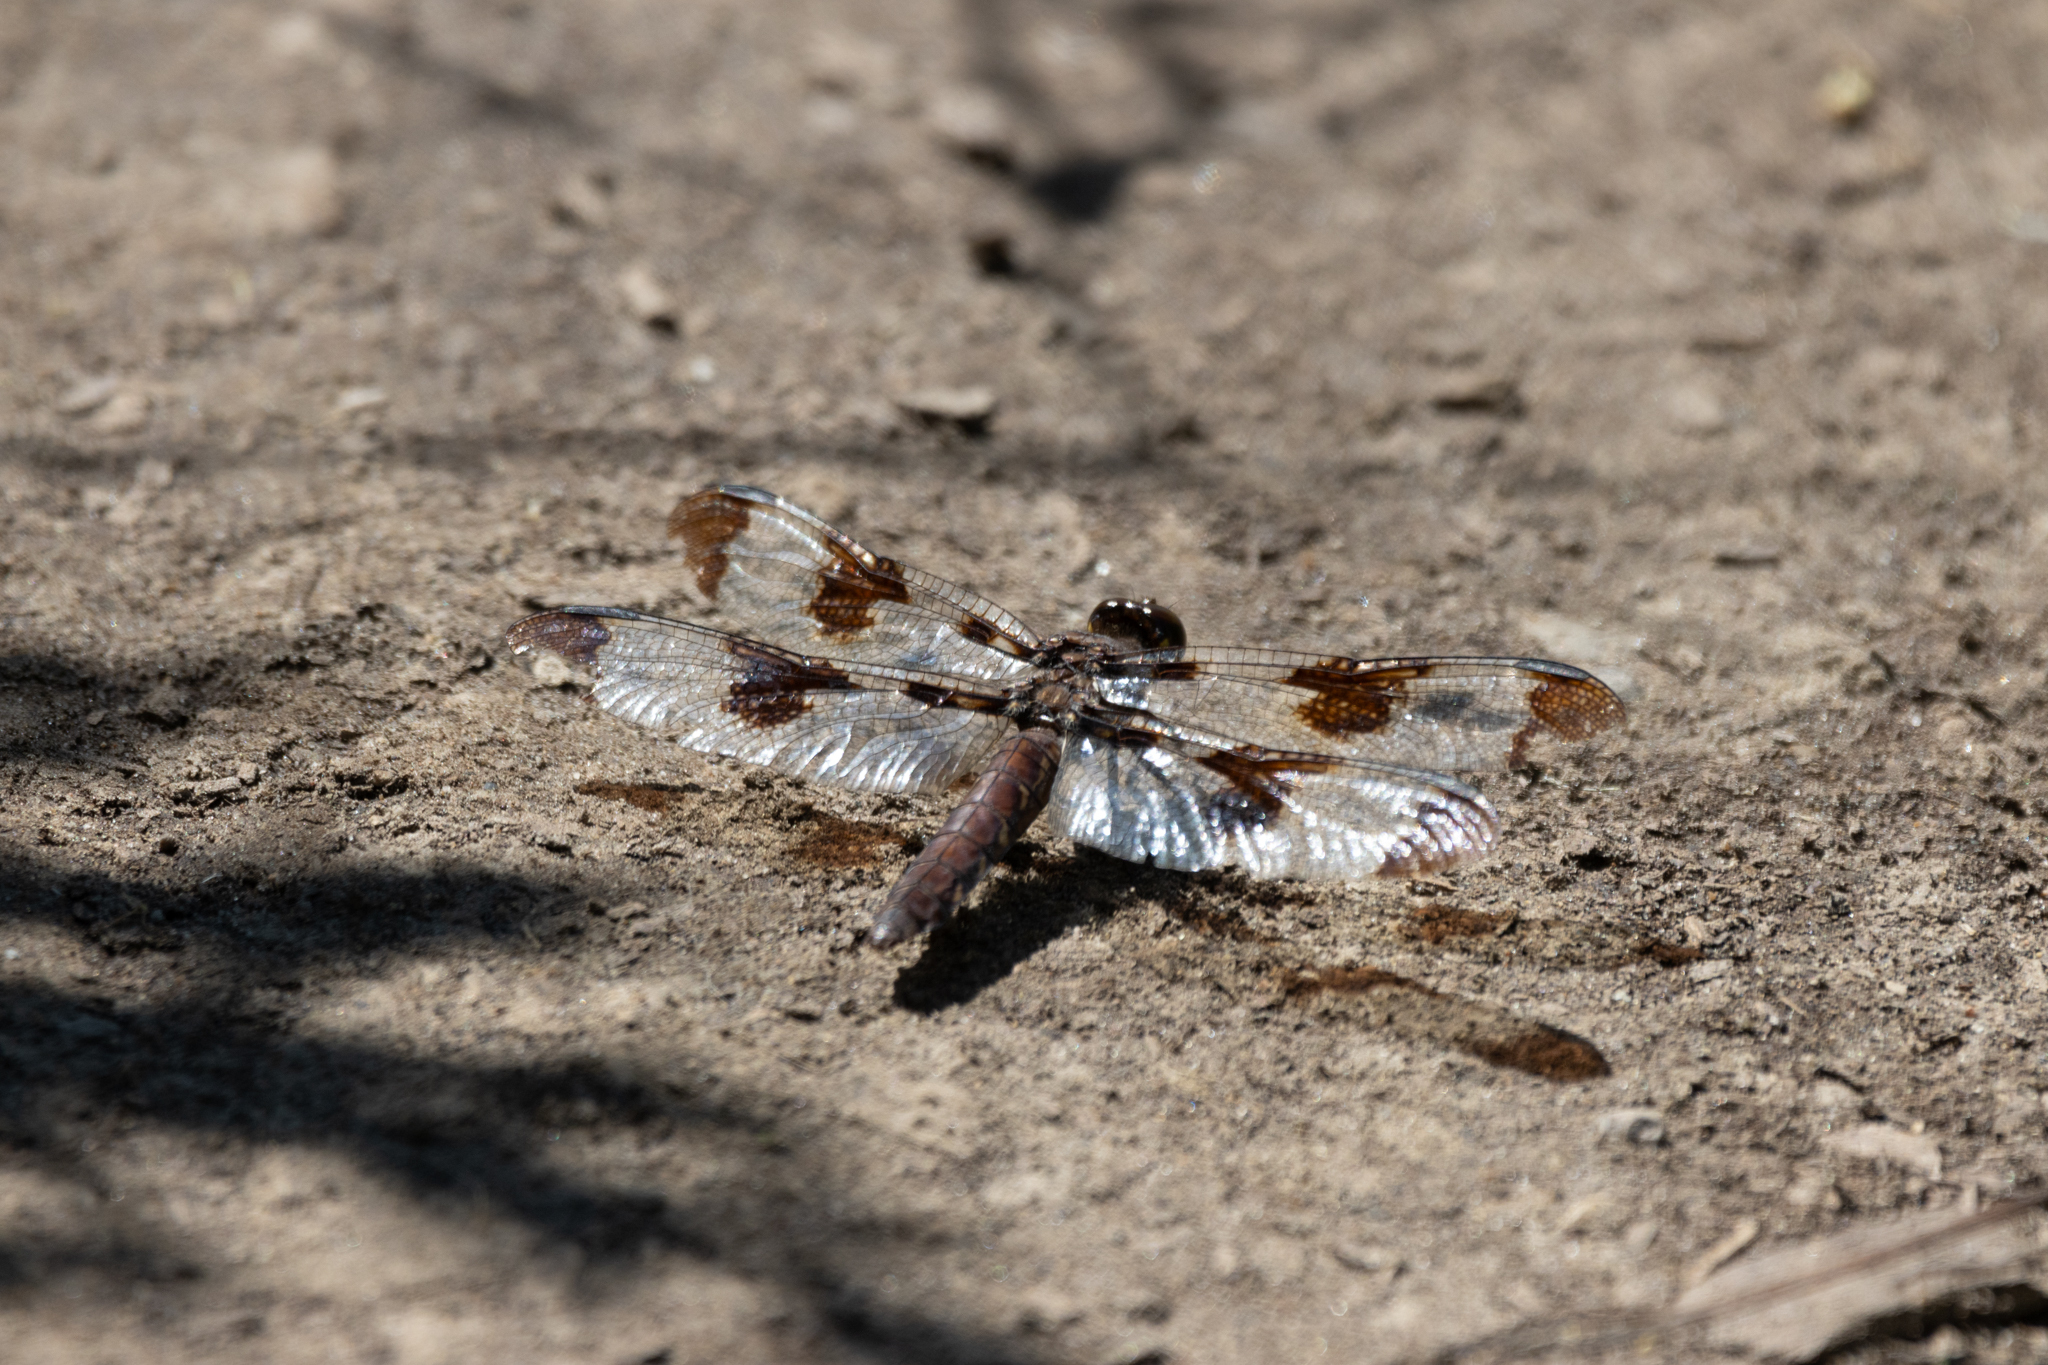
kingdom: Animalia
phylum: Arthropoda
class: Insecta
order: Odonata
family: Libellulidae
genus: Plathemis
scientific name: Plathemis lydia
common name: Common whitetail
